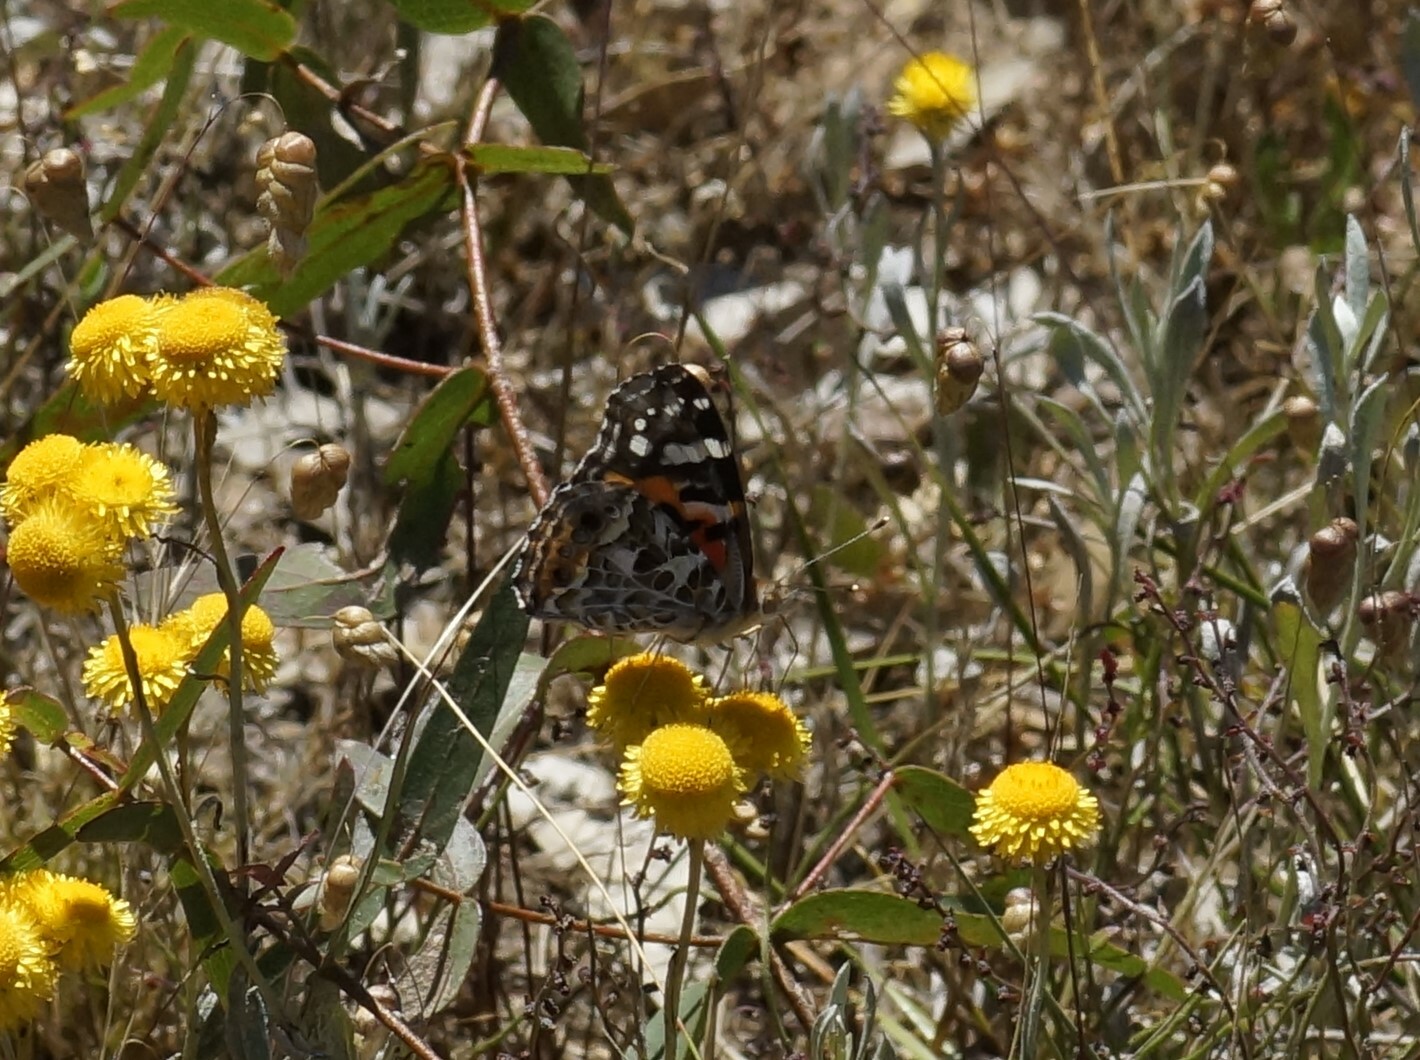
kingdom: Animalia
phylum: Arthropoda
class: Insecta
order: Lepidoptera
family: Nymphalidae
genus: Vanessa
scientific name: Vanessa kershawi
